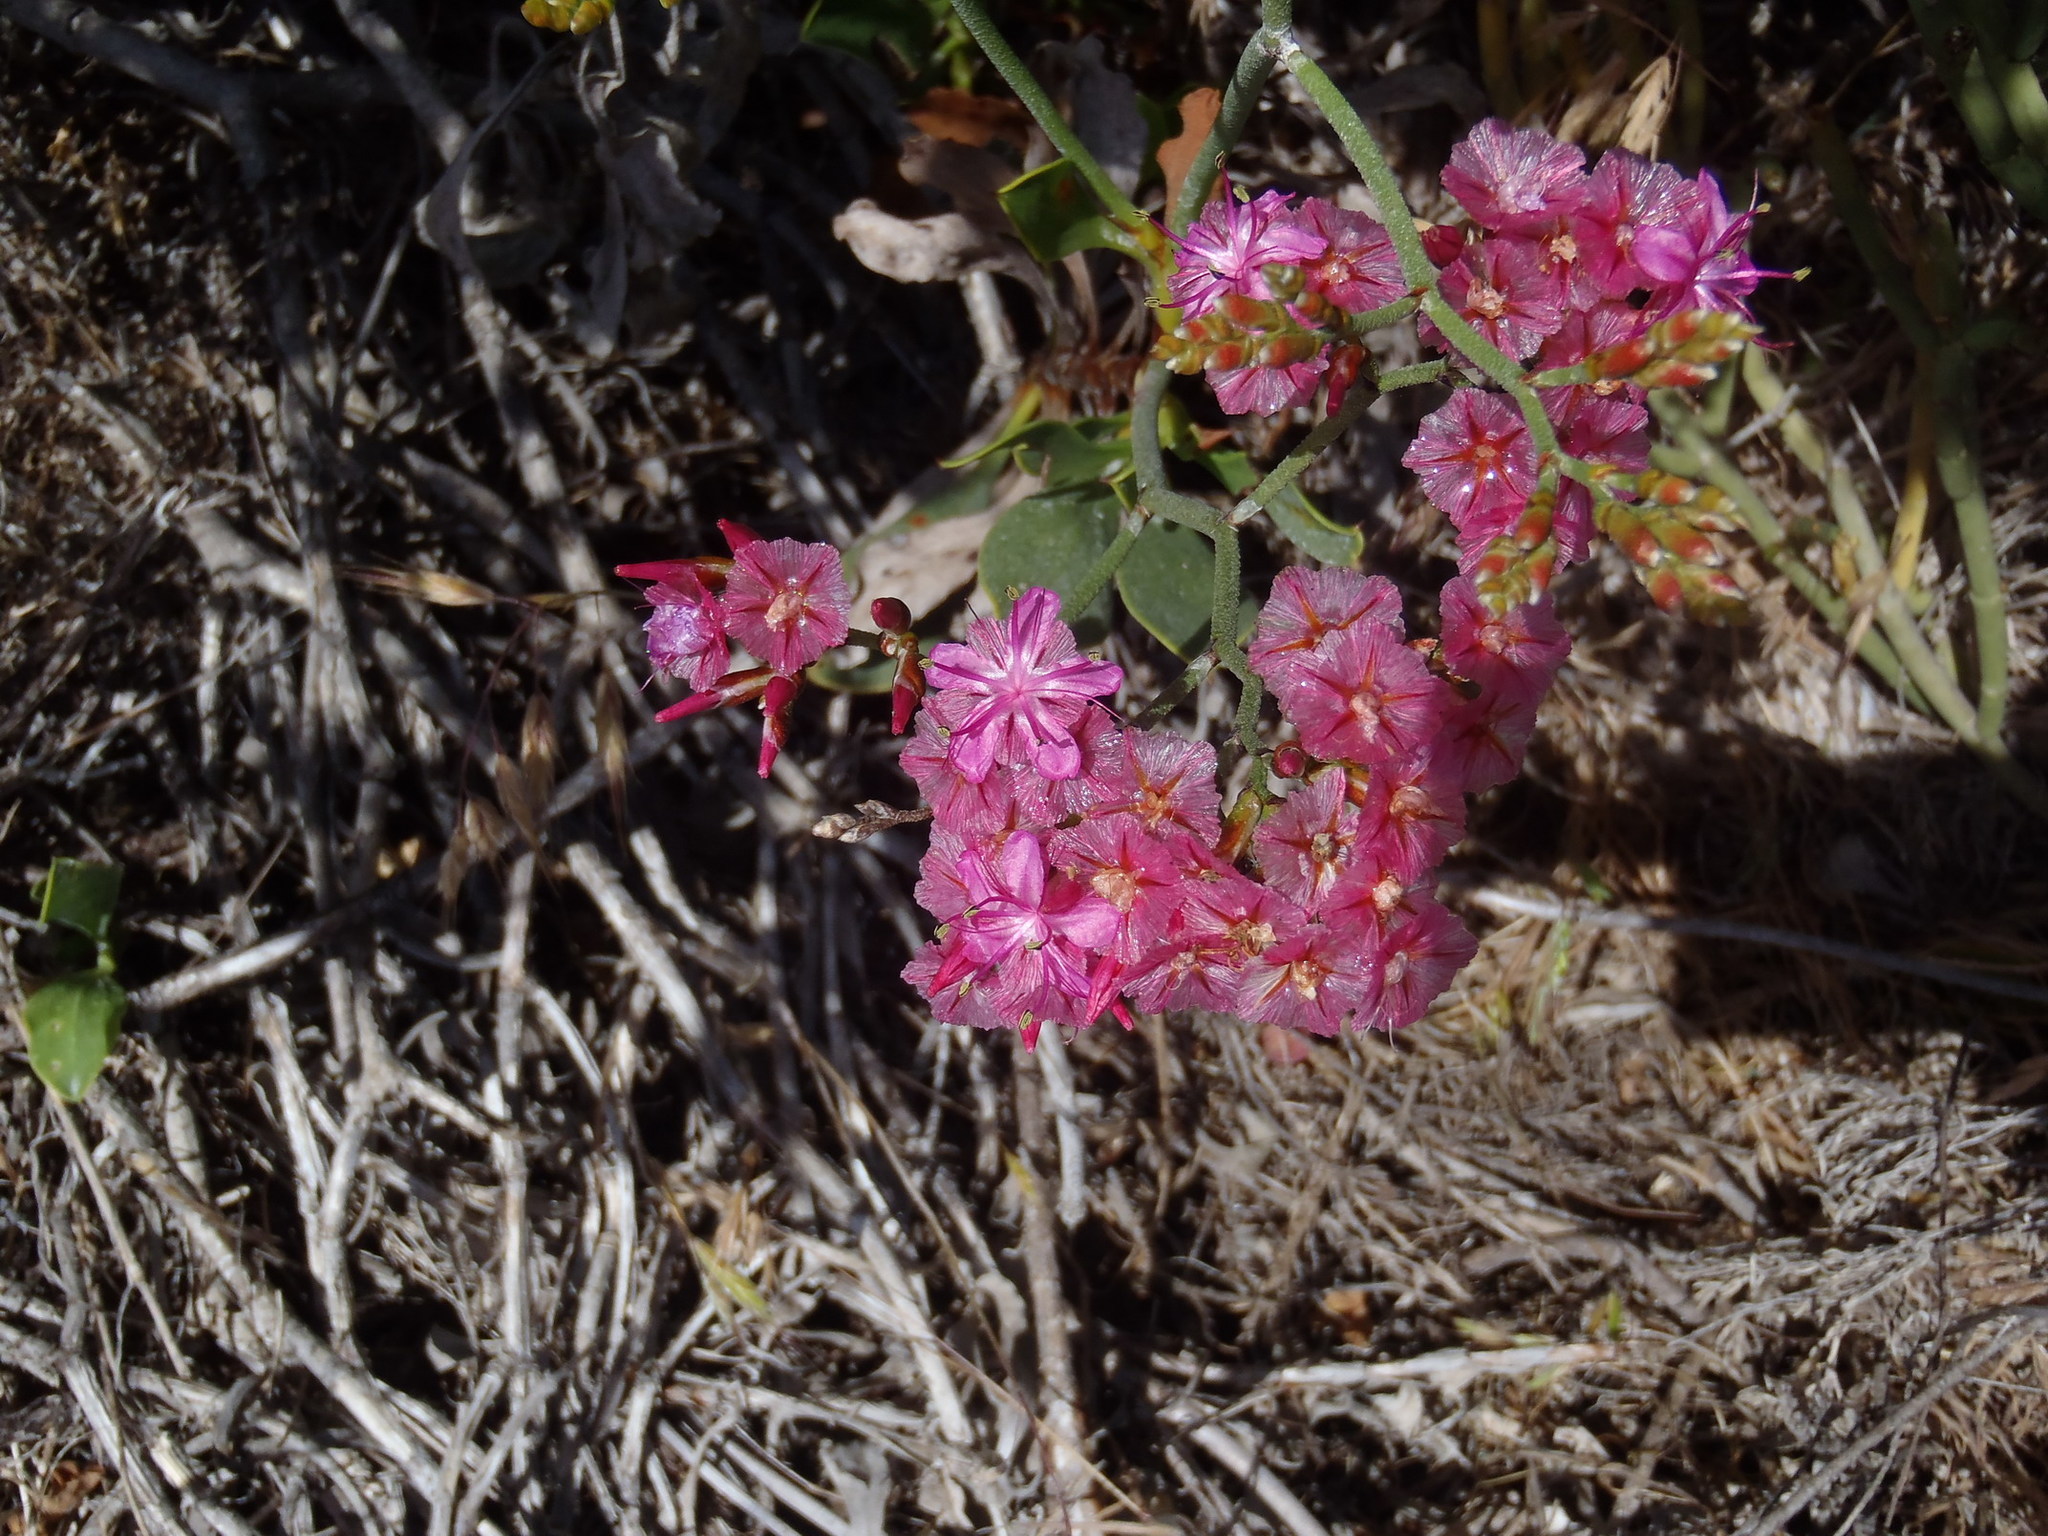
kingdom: Plantae
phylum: Tracheophyta
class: Magnoliopsida
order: Caryophyllales
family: Plumbaginaceae
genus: Limonium
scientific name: Limonium peregrinum
